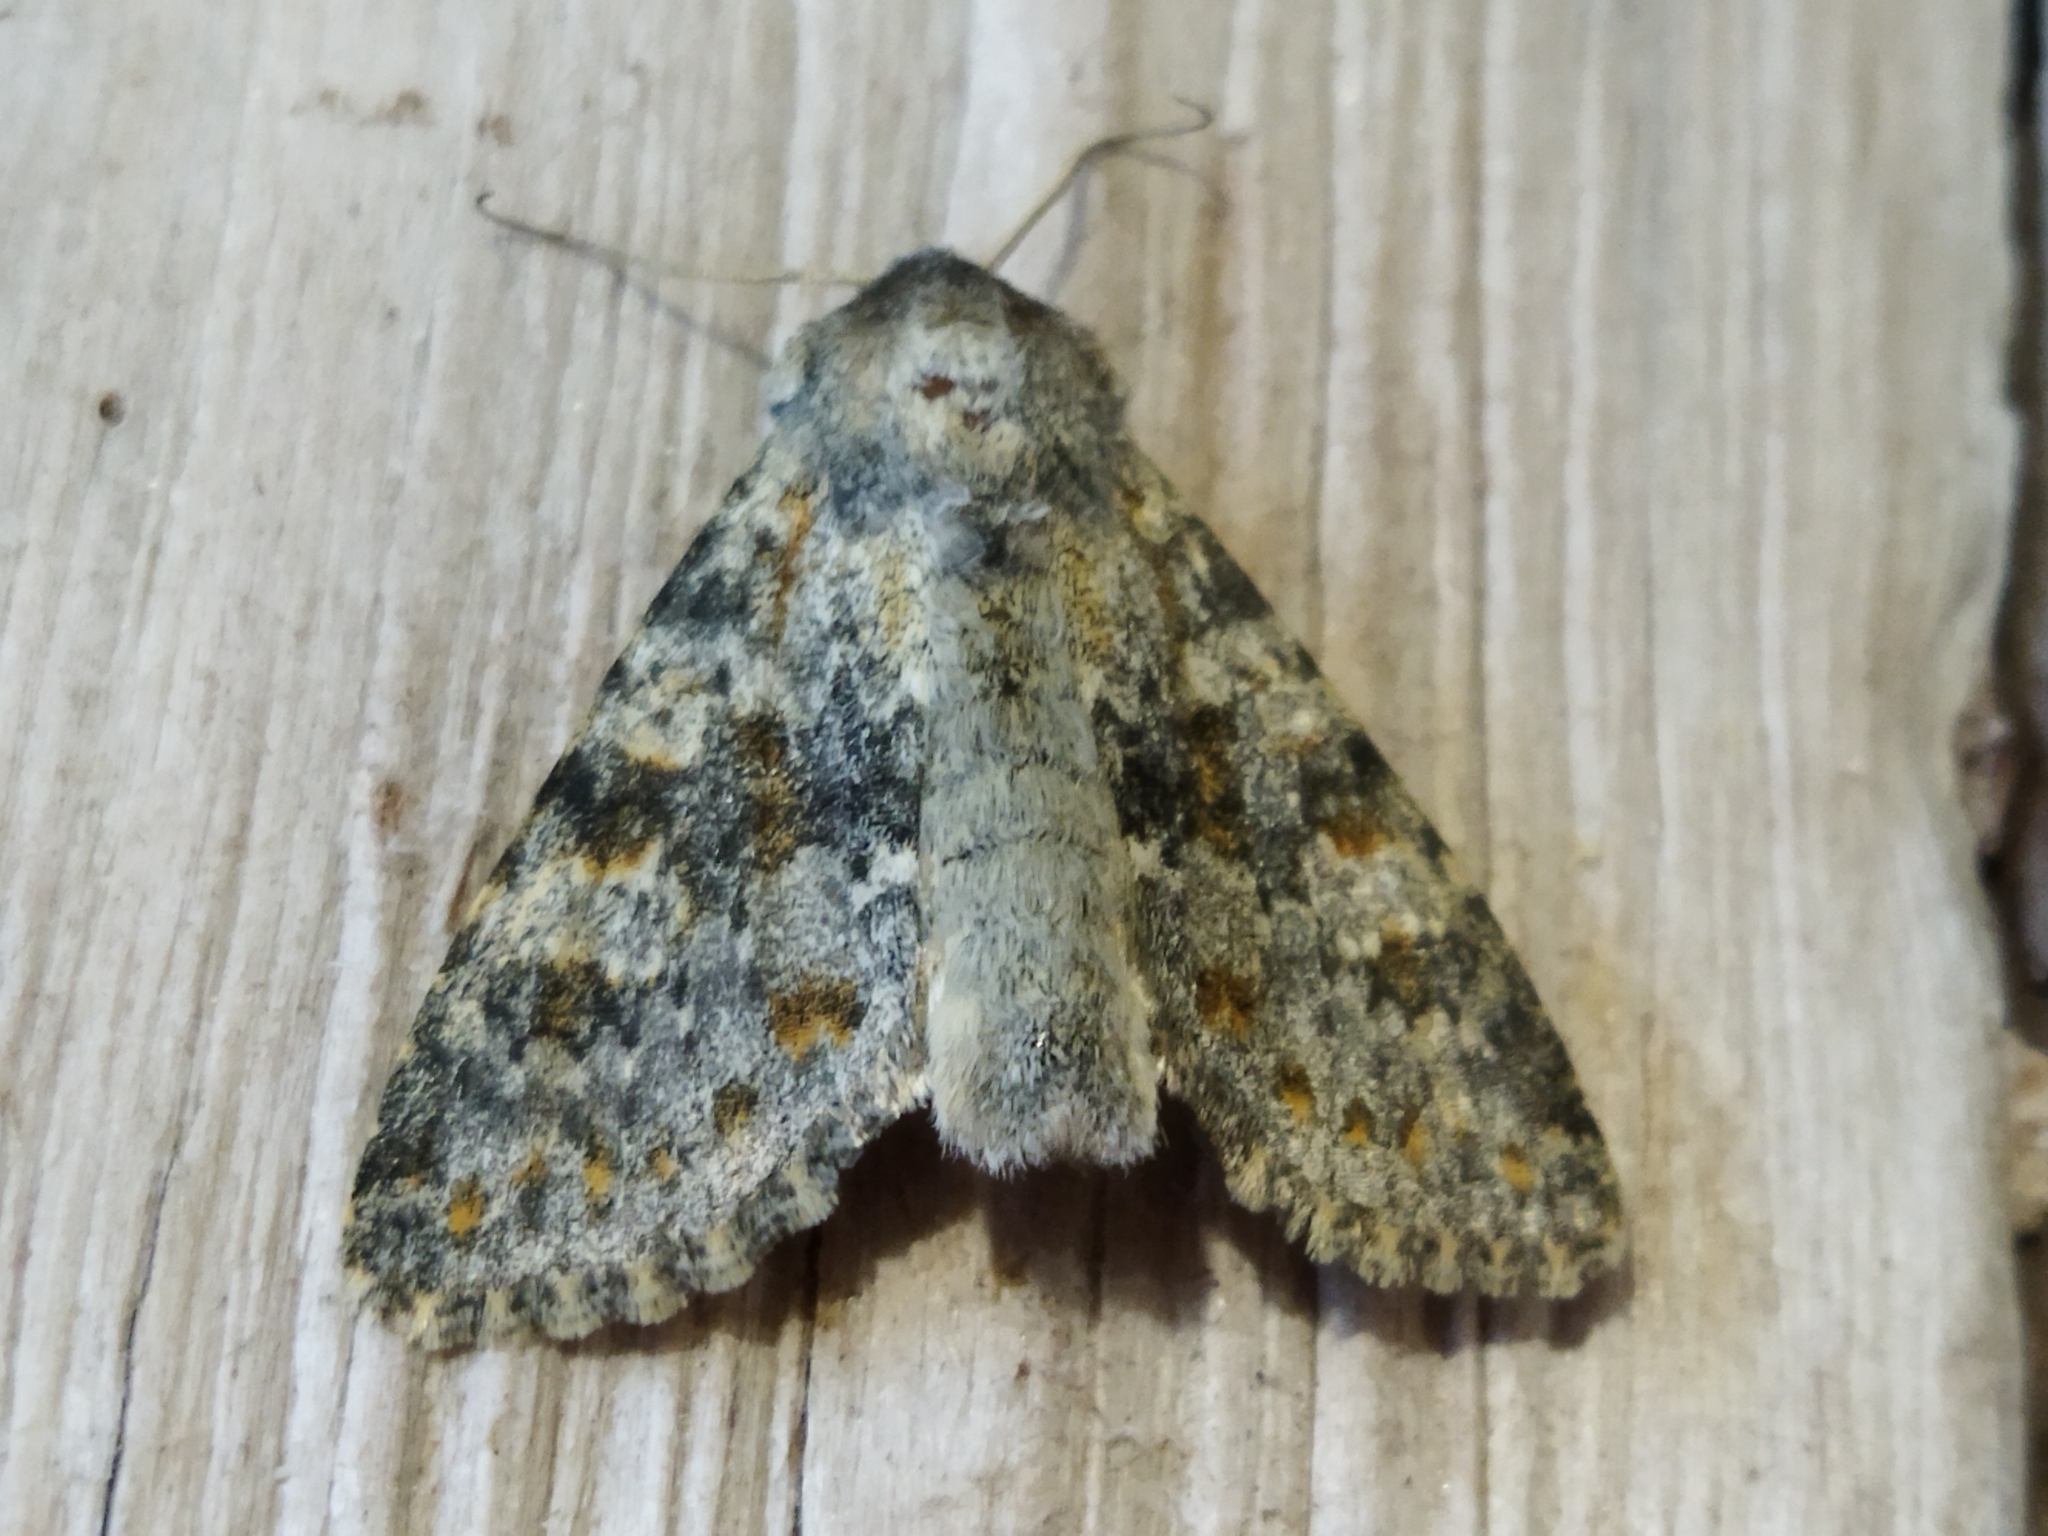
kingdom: Animalia
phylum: Arthropoda
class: Insecta
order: Lepidoptera
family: Noctuidae
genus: Polymixis
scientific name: Polymixis rufocincta
